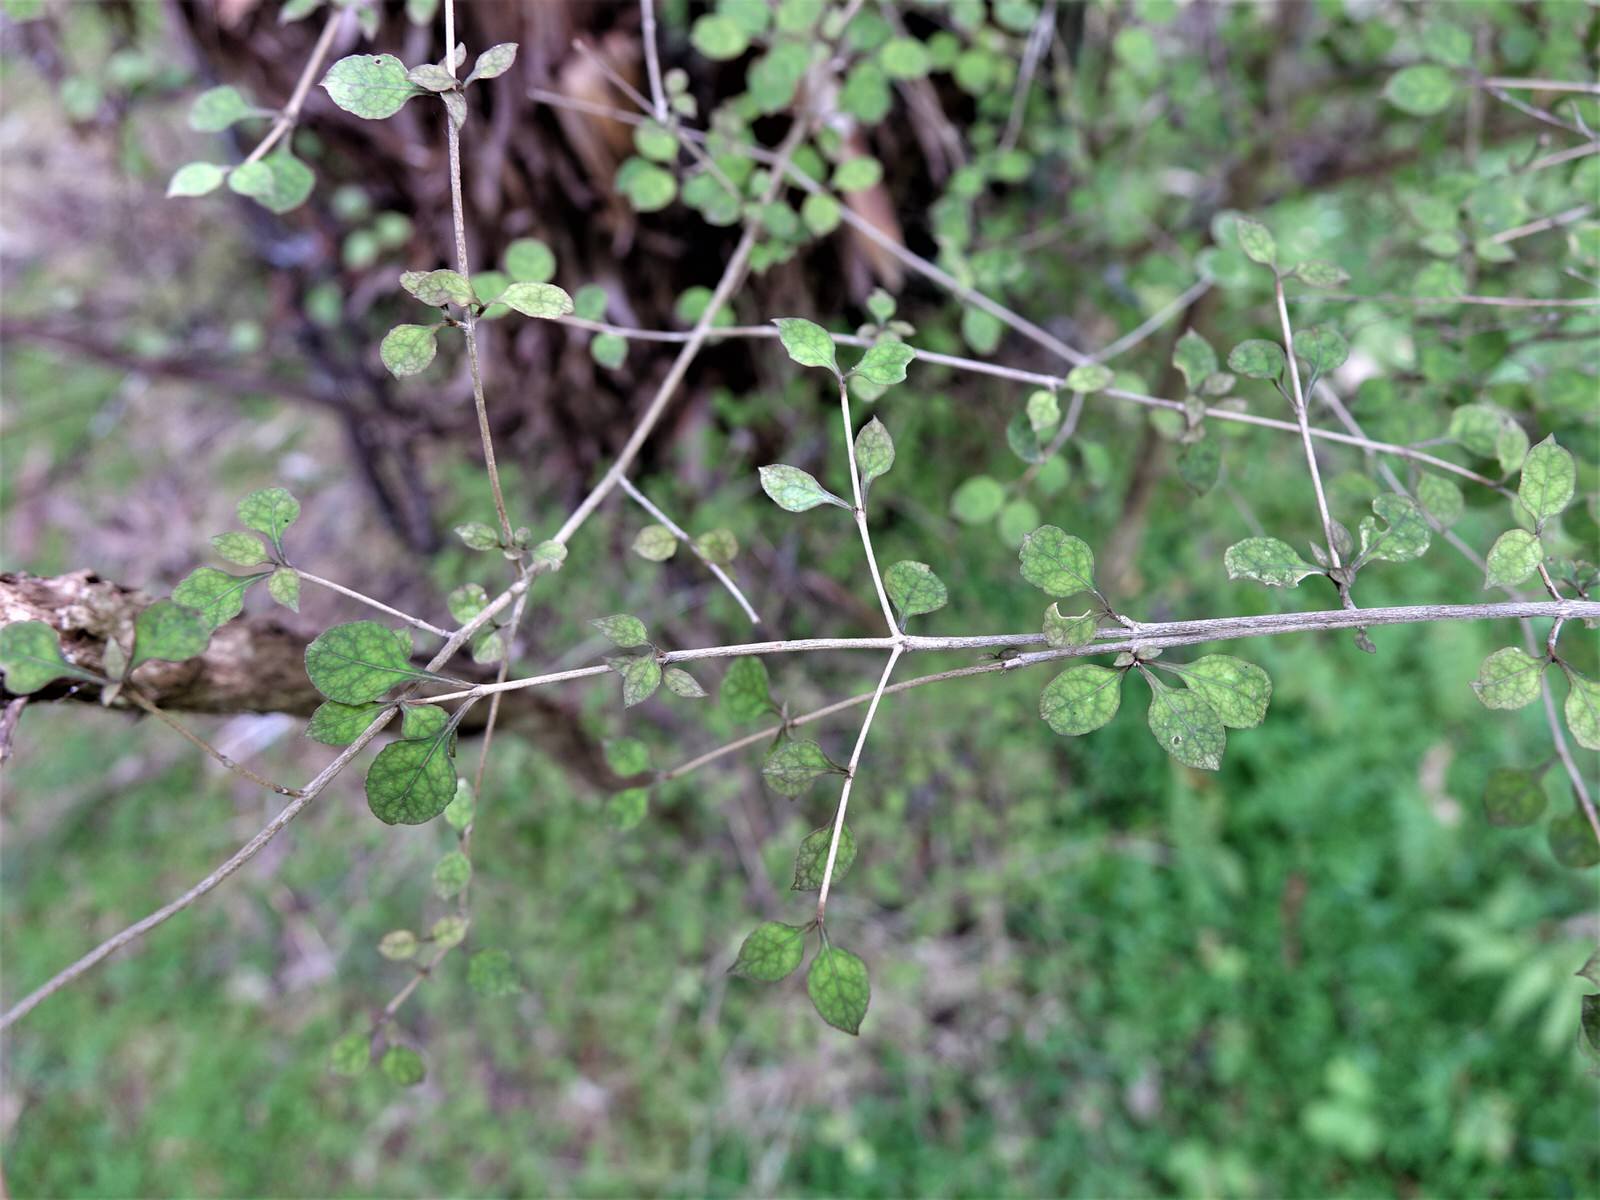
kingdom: Plantae
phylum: Tracheophyta
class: Magnoliopsida
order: Gentianales
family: Rubiaceae
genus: Coprosma
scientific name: Coprosma areolata
